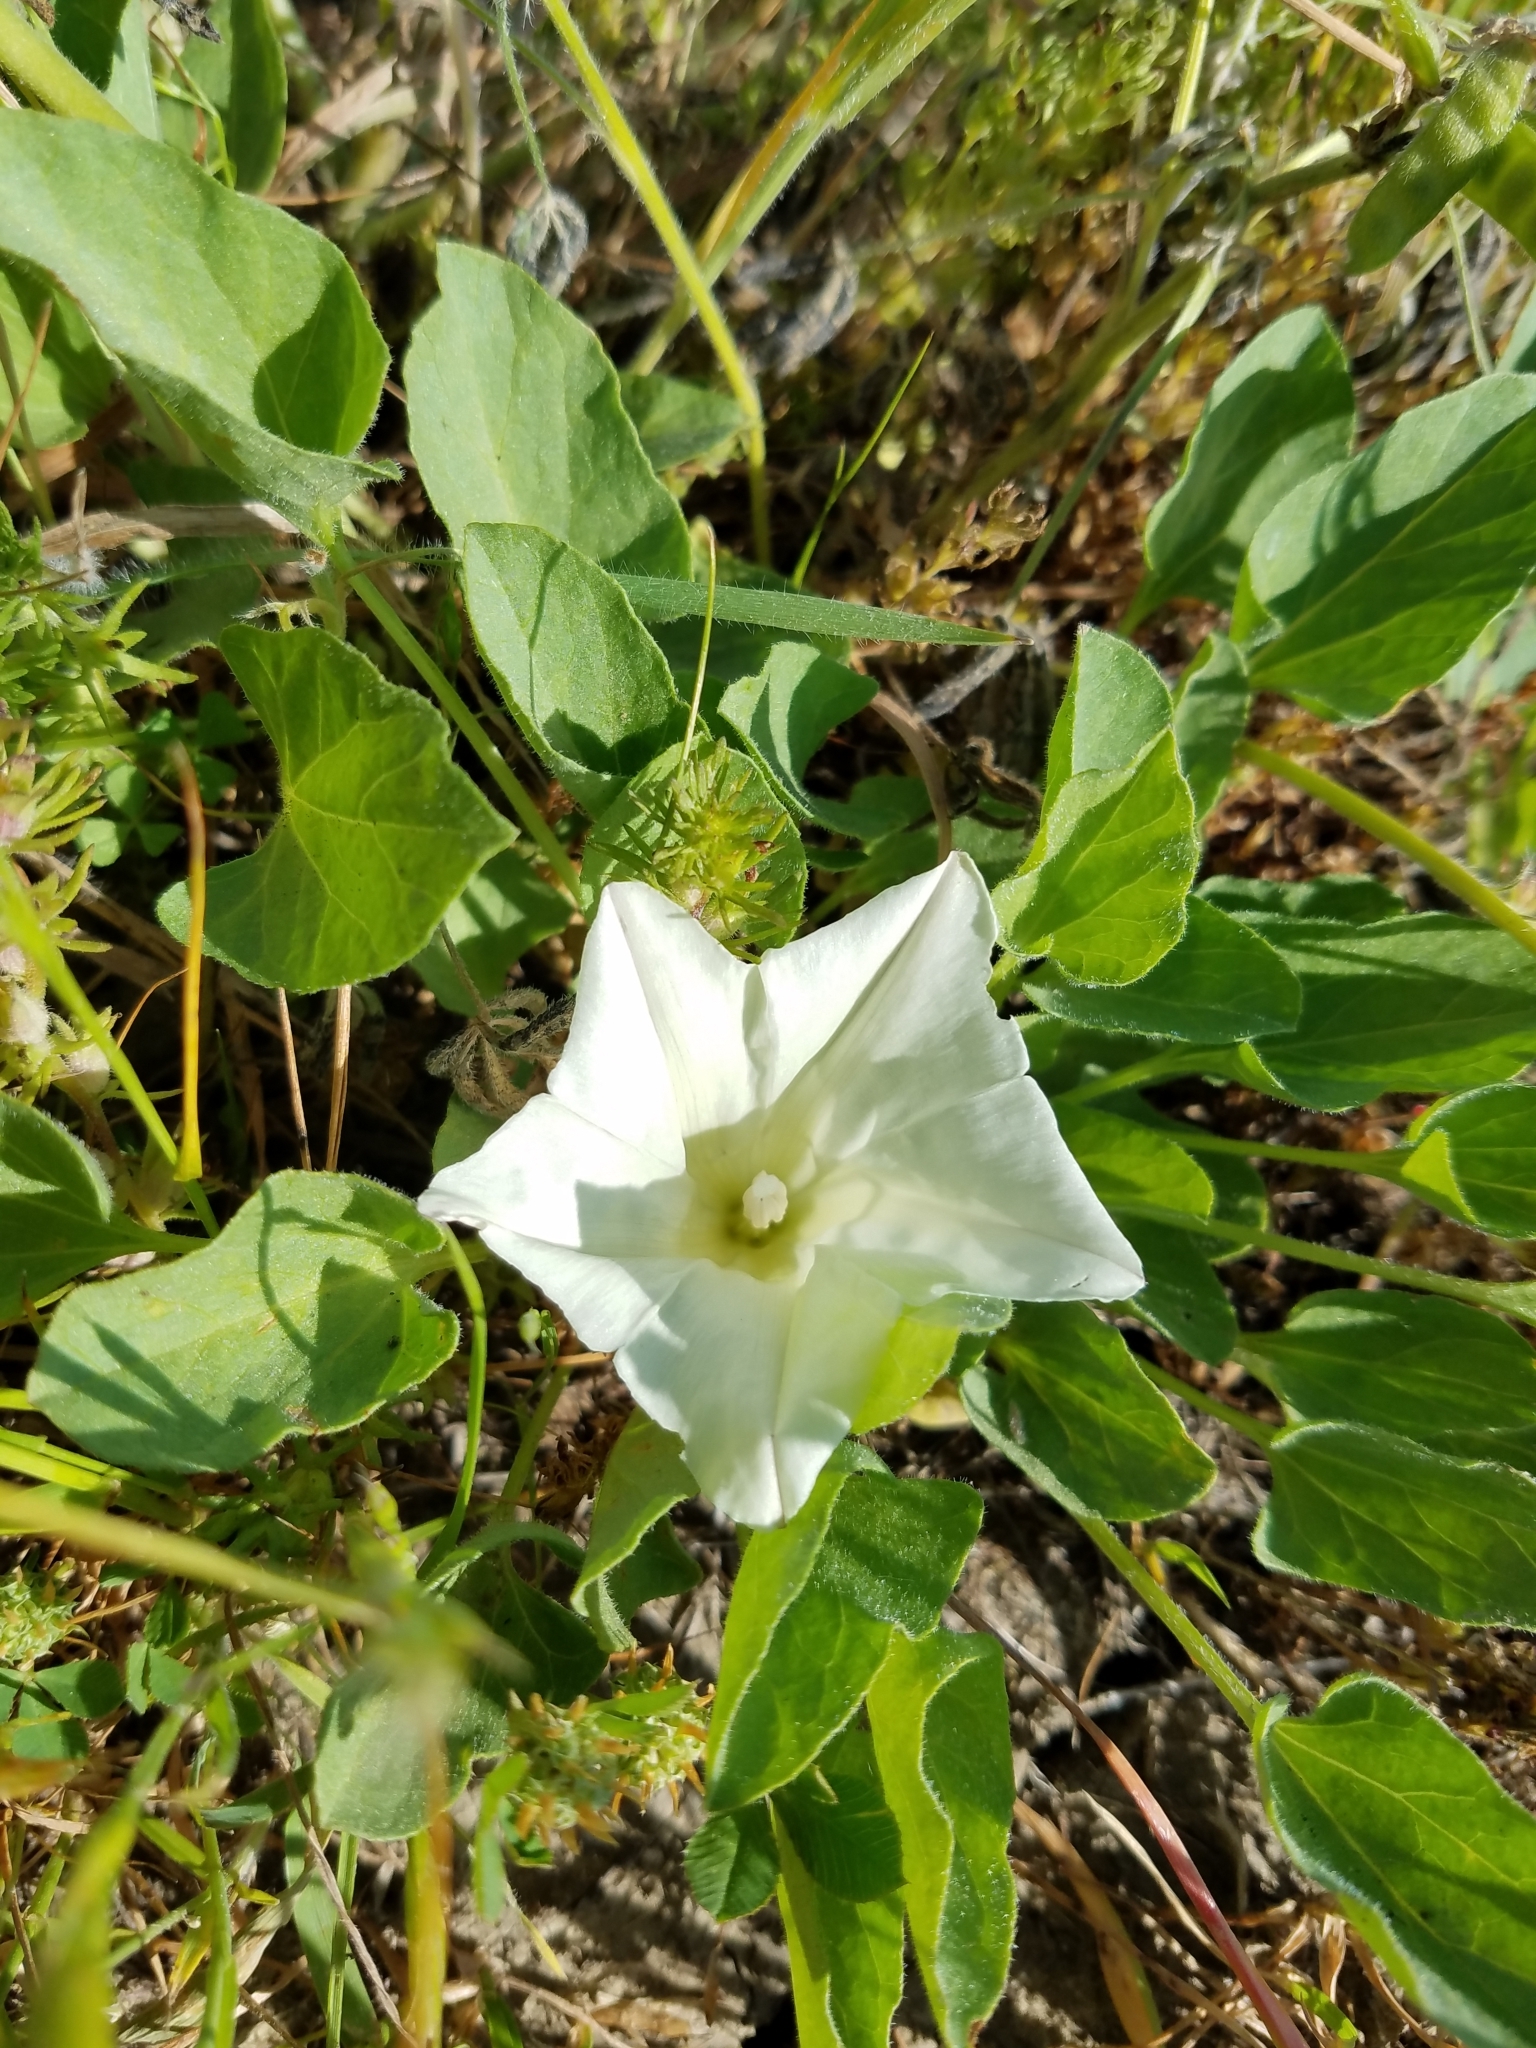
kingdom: Plantae
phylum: Tracheophyta
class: Magnoliopsida
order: Solanales
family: Convolvulaceae
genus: Calystegia
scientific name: Calystegia subacaulis
